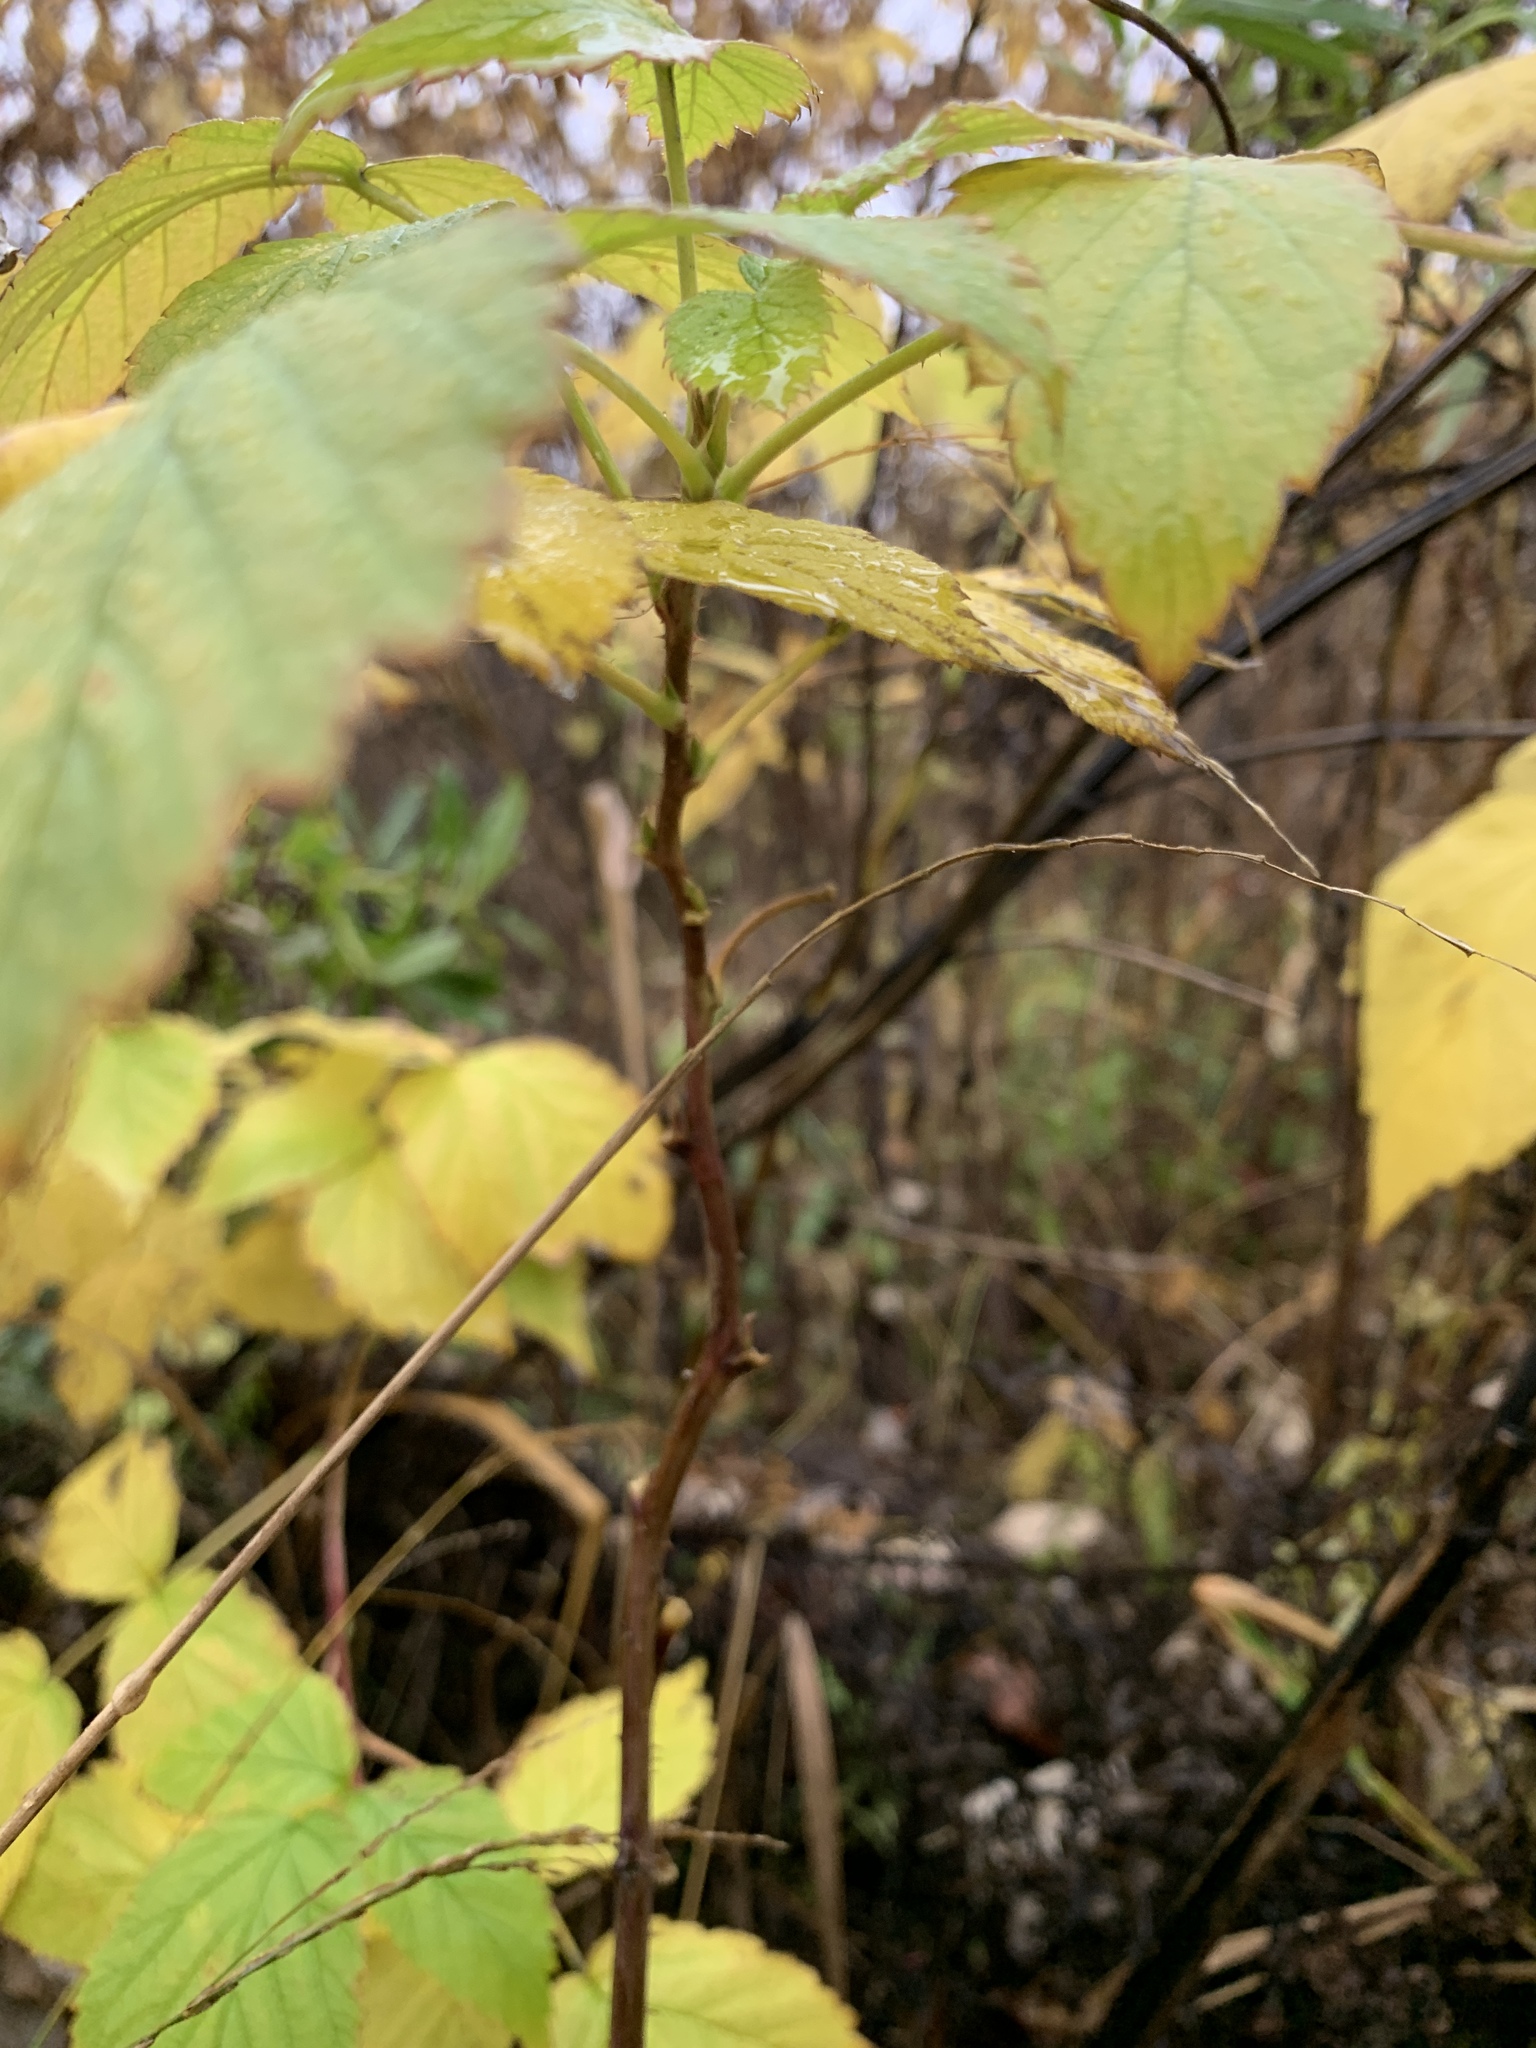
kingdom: Plantae
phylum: Tracheophyta
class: Magnoliopsida
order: Rosales
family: Rosaceae
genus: Rubus
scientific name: Rubus idaeus
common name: Raspberry
